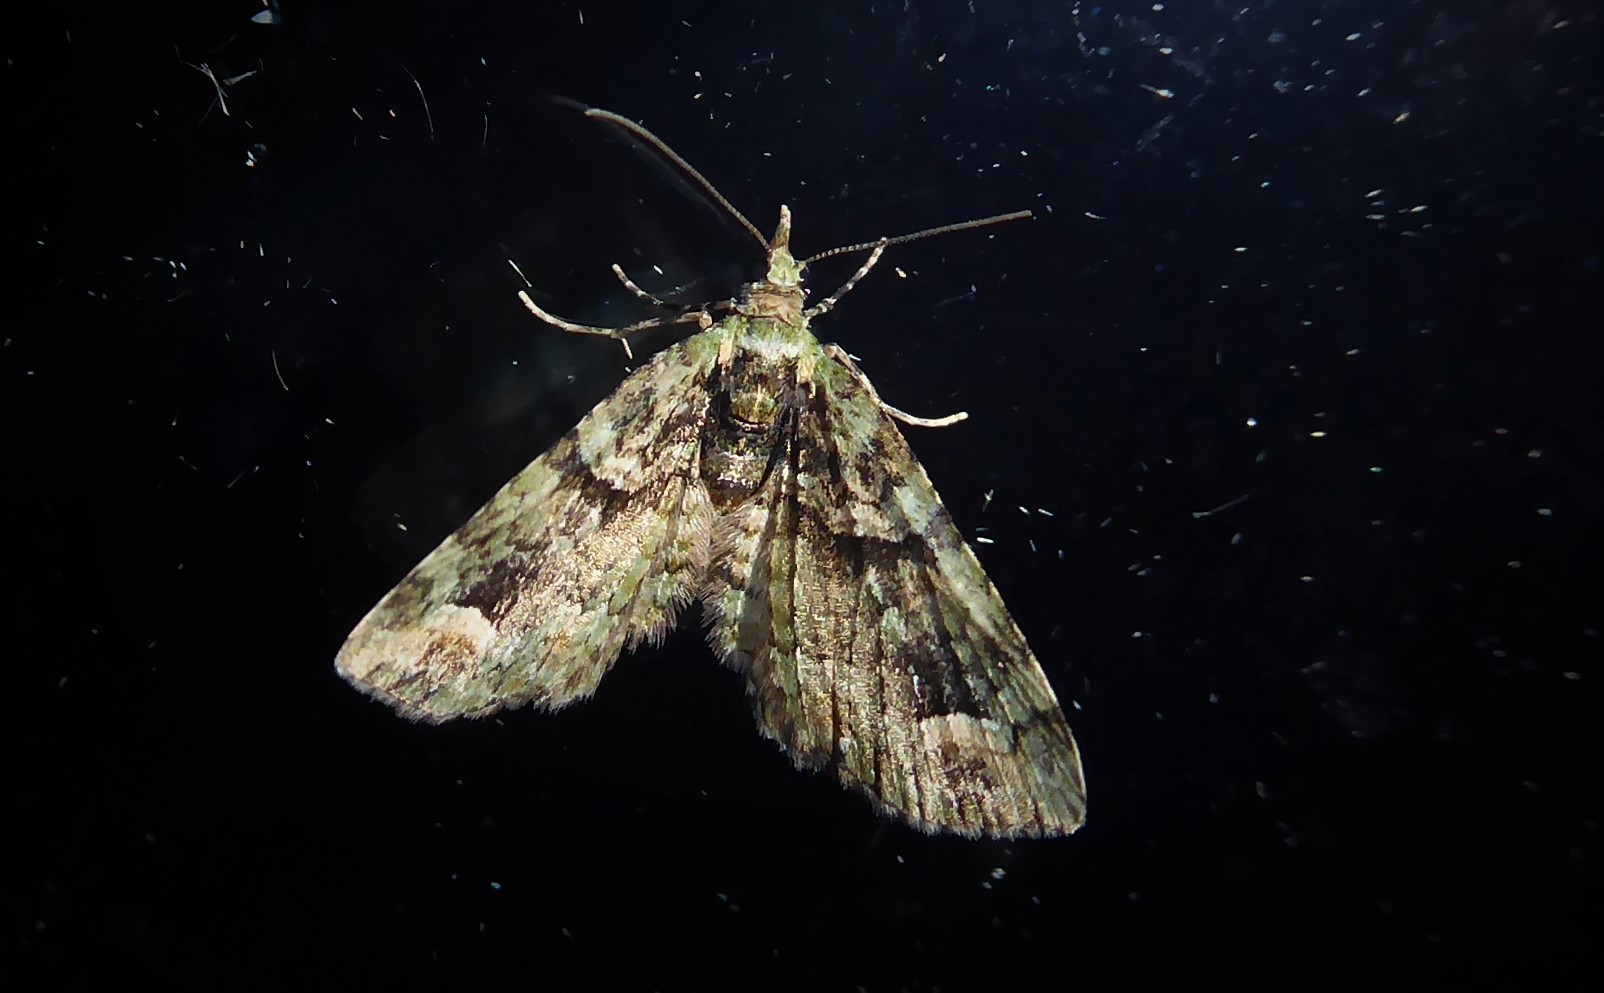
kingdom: Animalia
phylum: Arthropoda
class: Insecta
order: Lepidoptera
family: Geometridae
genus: Idaea
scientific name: Idaea mutanda
